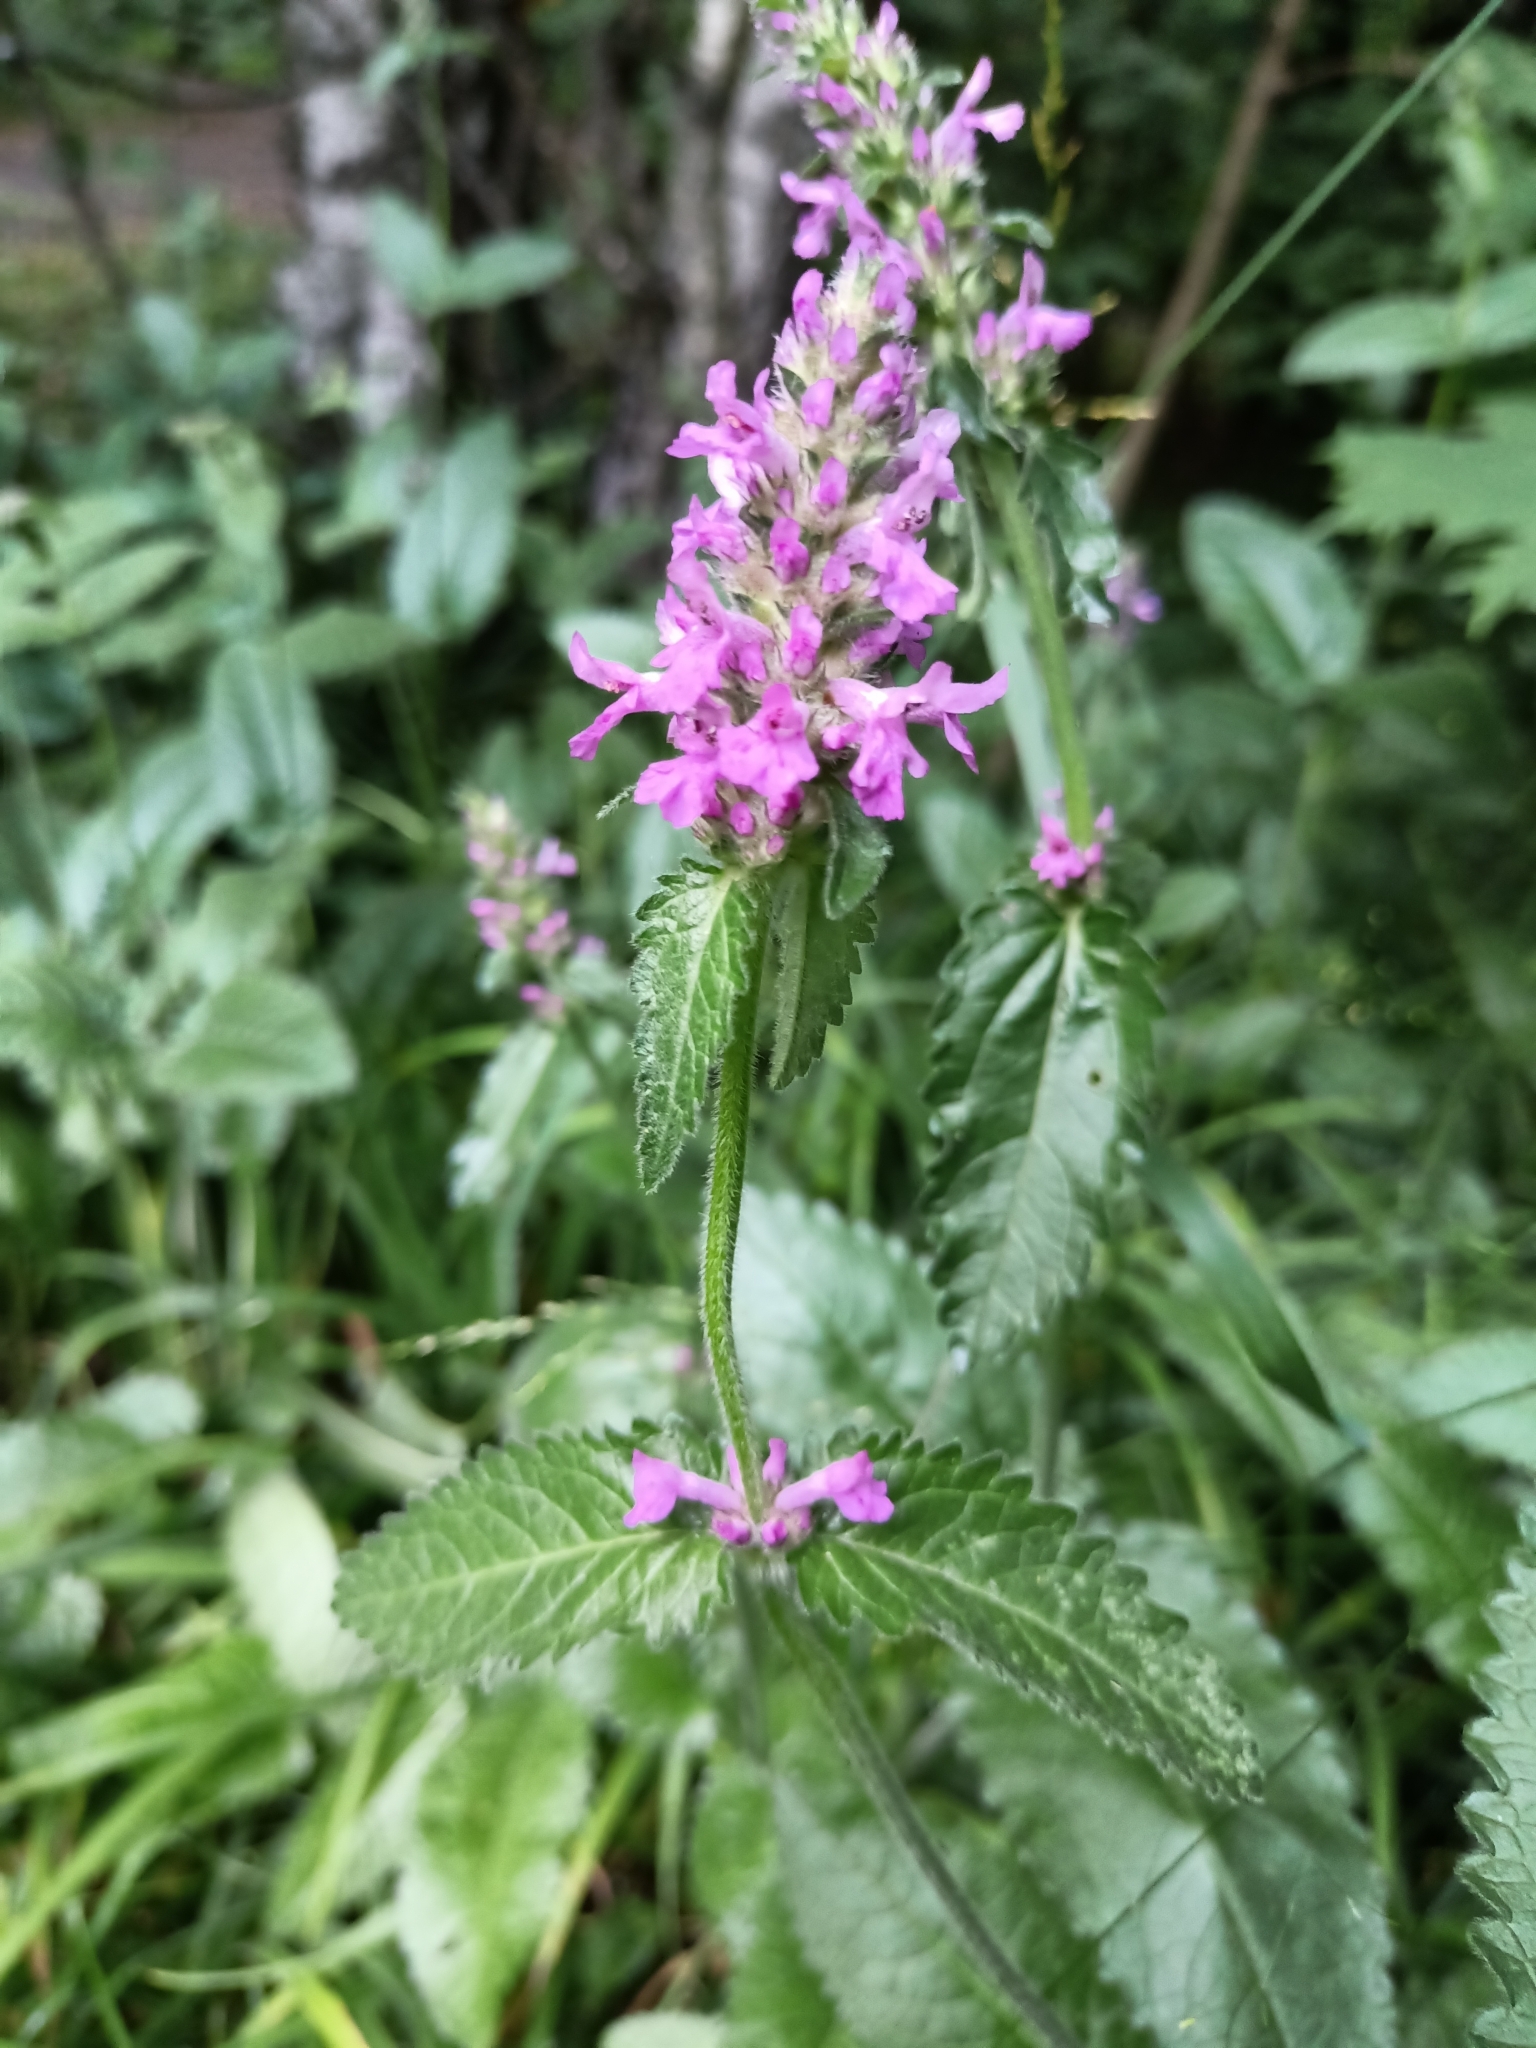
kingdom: Plantae
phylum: Tracheophyta
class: Magnoliopsida
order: Lamiales
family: Lamiaceae
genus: Betonica
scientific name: Betonica officinalis
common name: Bishop's-wort
